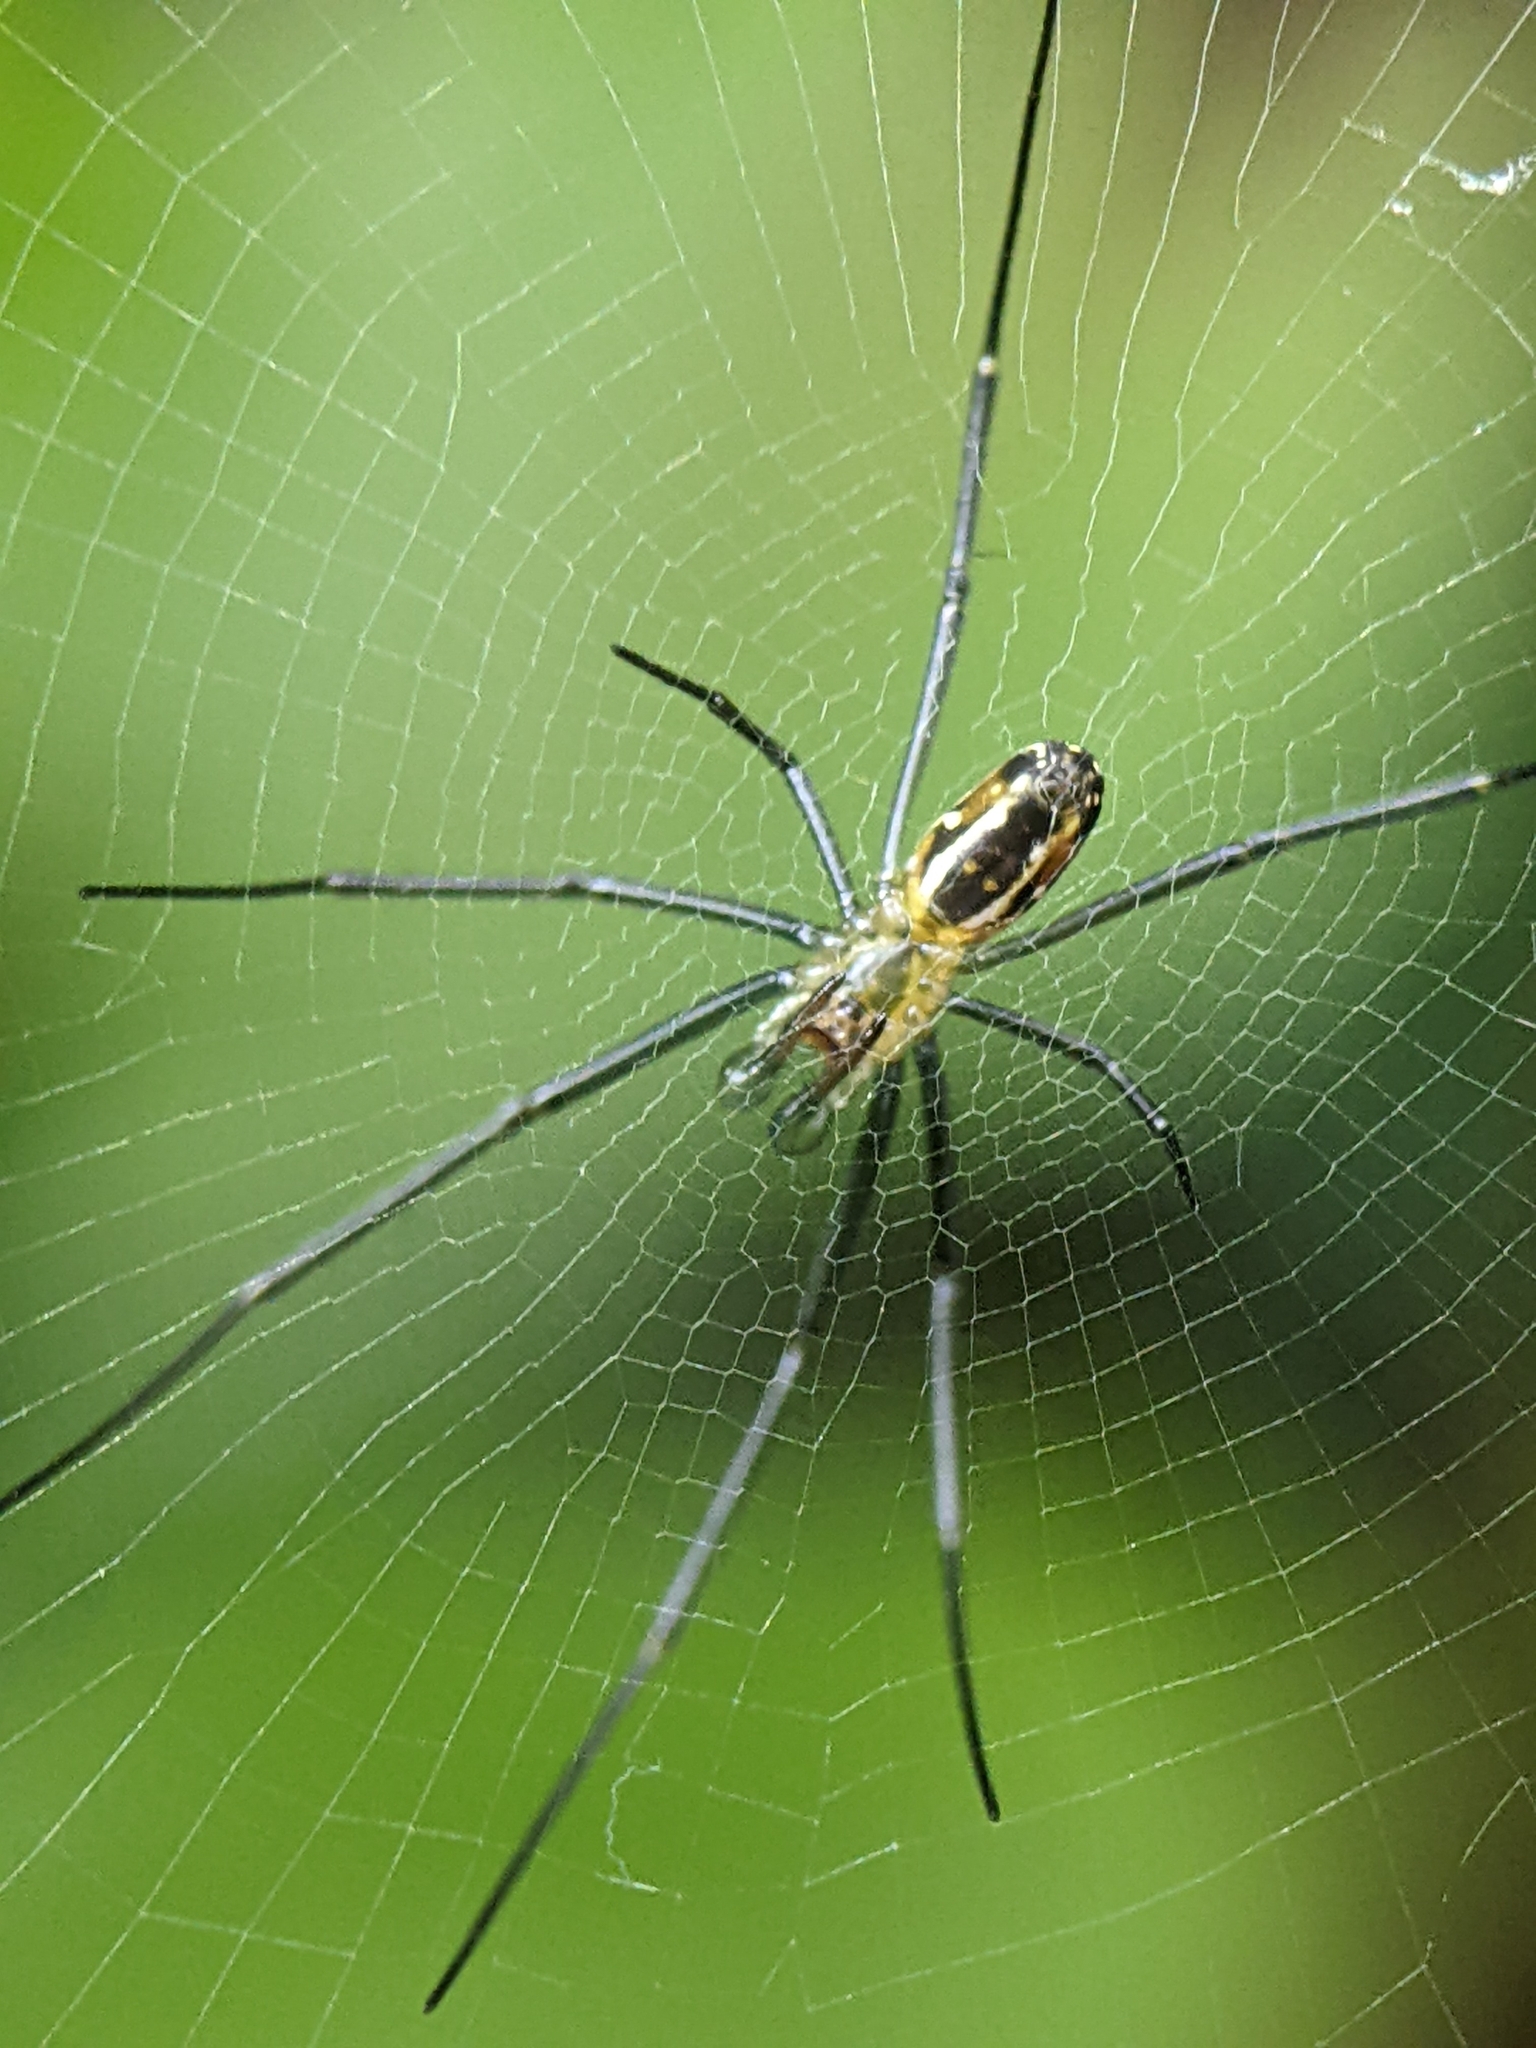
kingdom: Animalia
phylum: Arthropoda
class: Arachnida
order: Araneae
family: Araneidae
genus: Nephila
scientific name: Nephila pilipes
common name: Giant golden orb weaver
